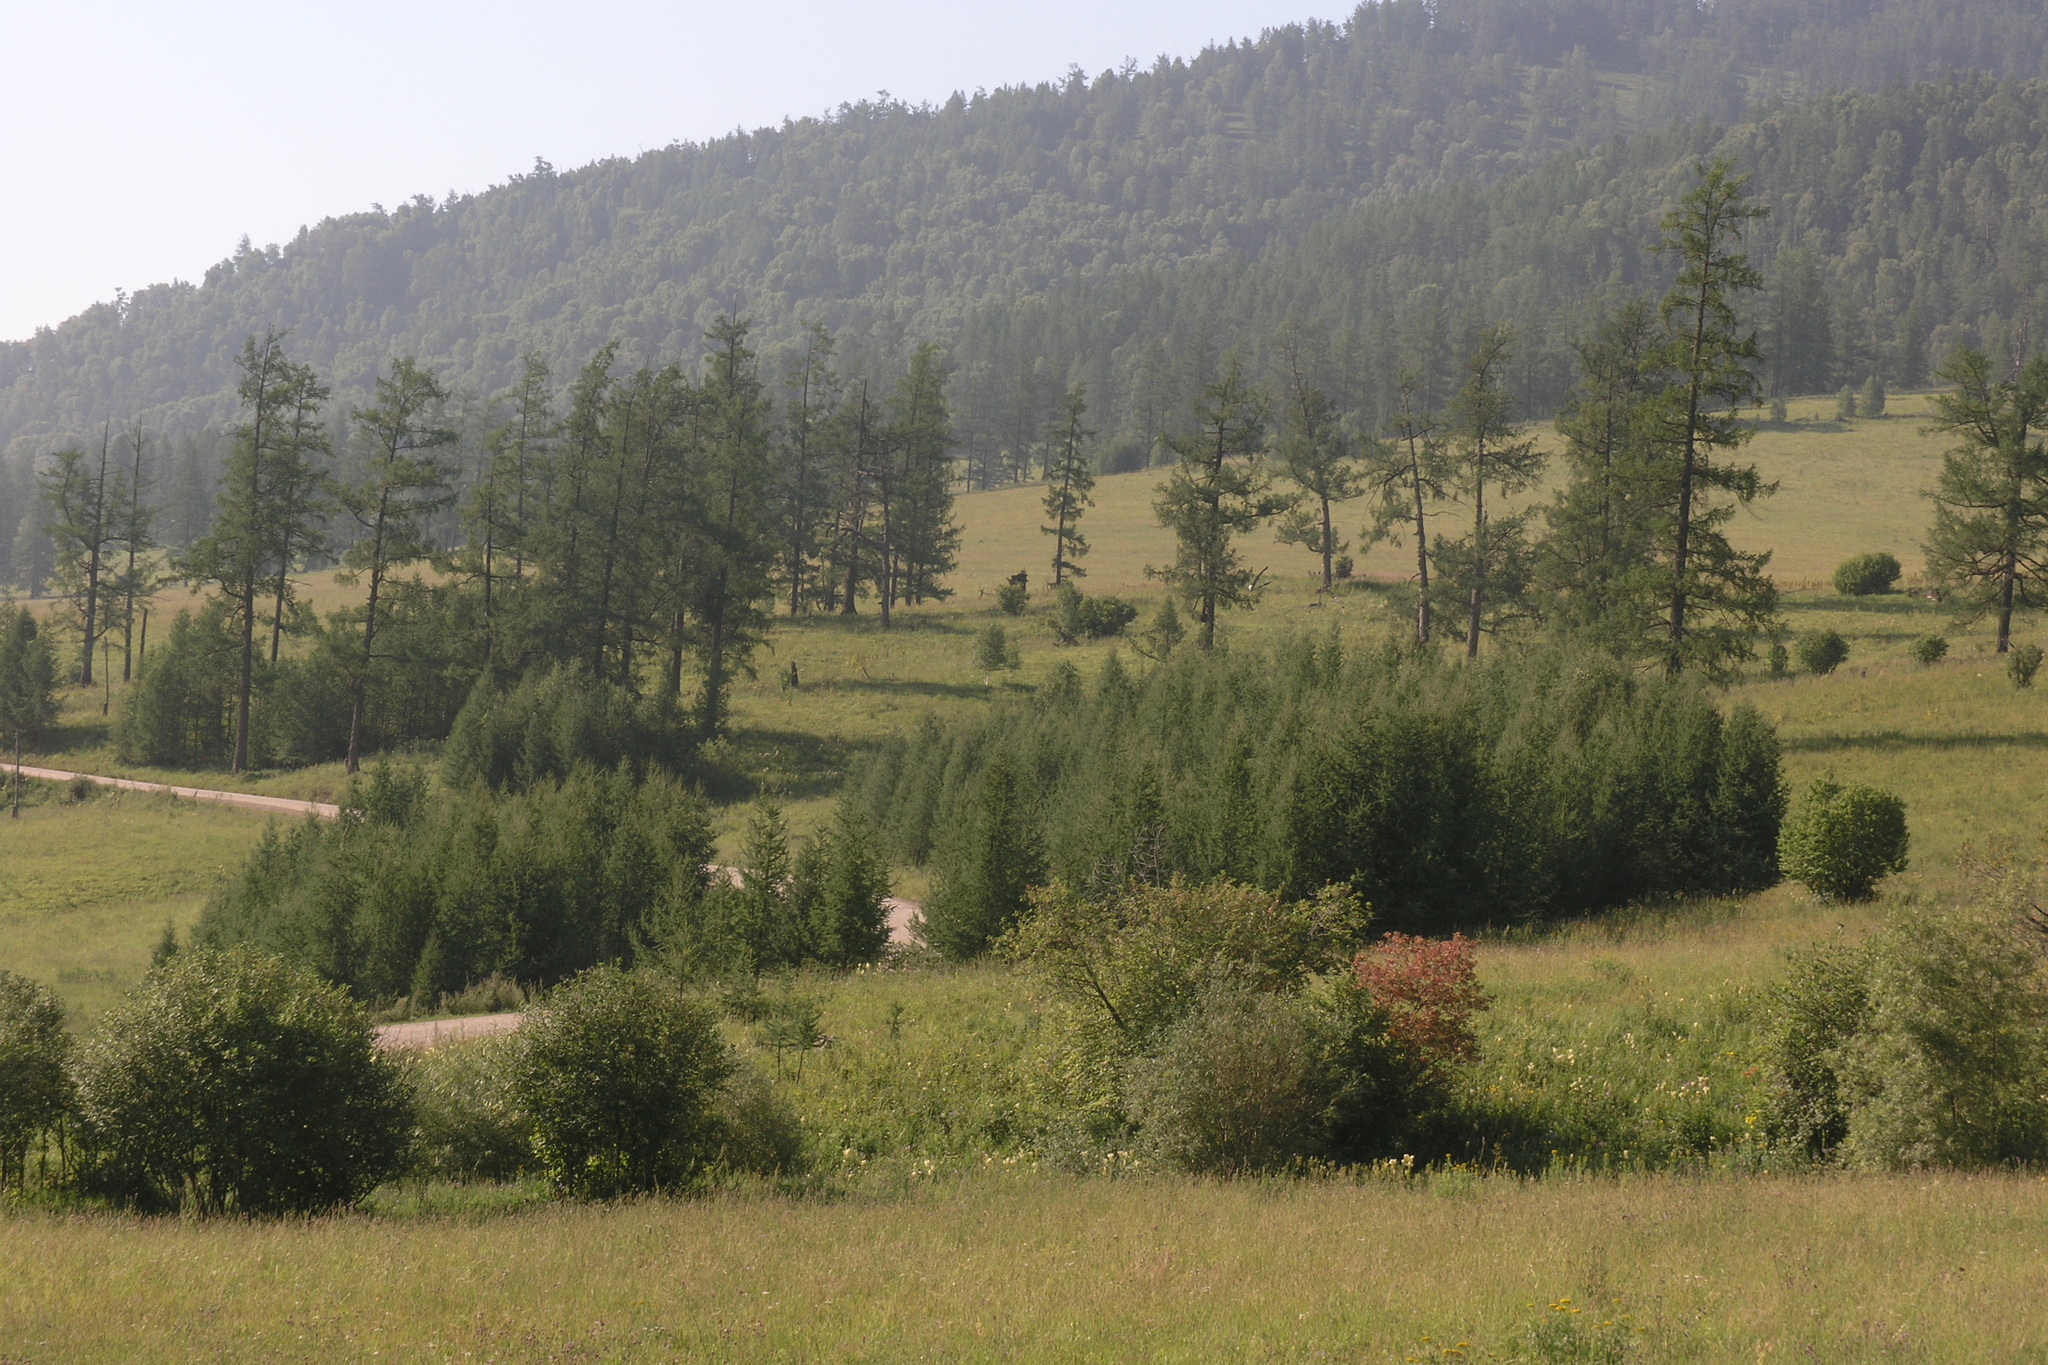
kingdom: Plantae
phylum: Tracheophyta
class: Pinopsida
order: Pinales
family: Pinaceae
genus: Larix
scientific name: Larix sibirica
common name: Siberian larch
